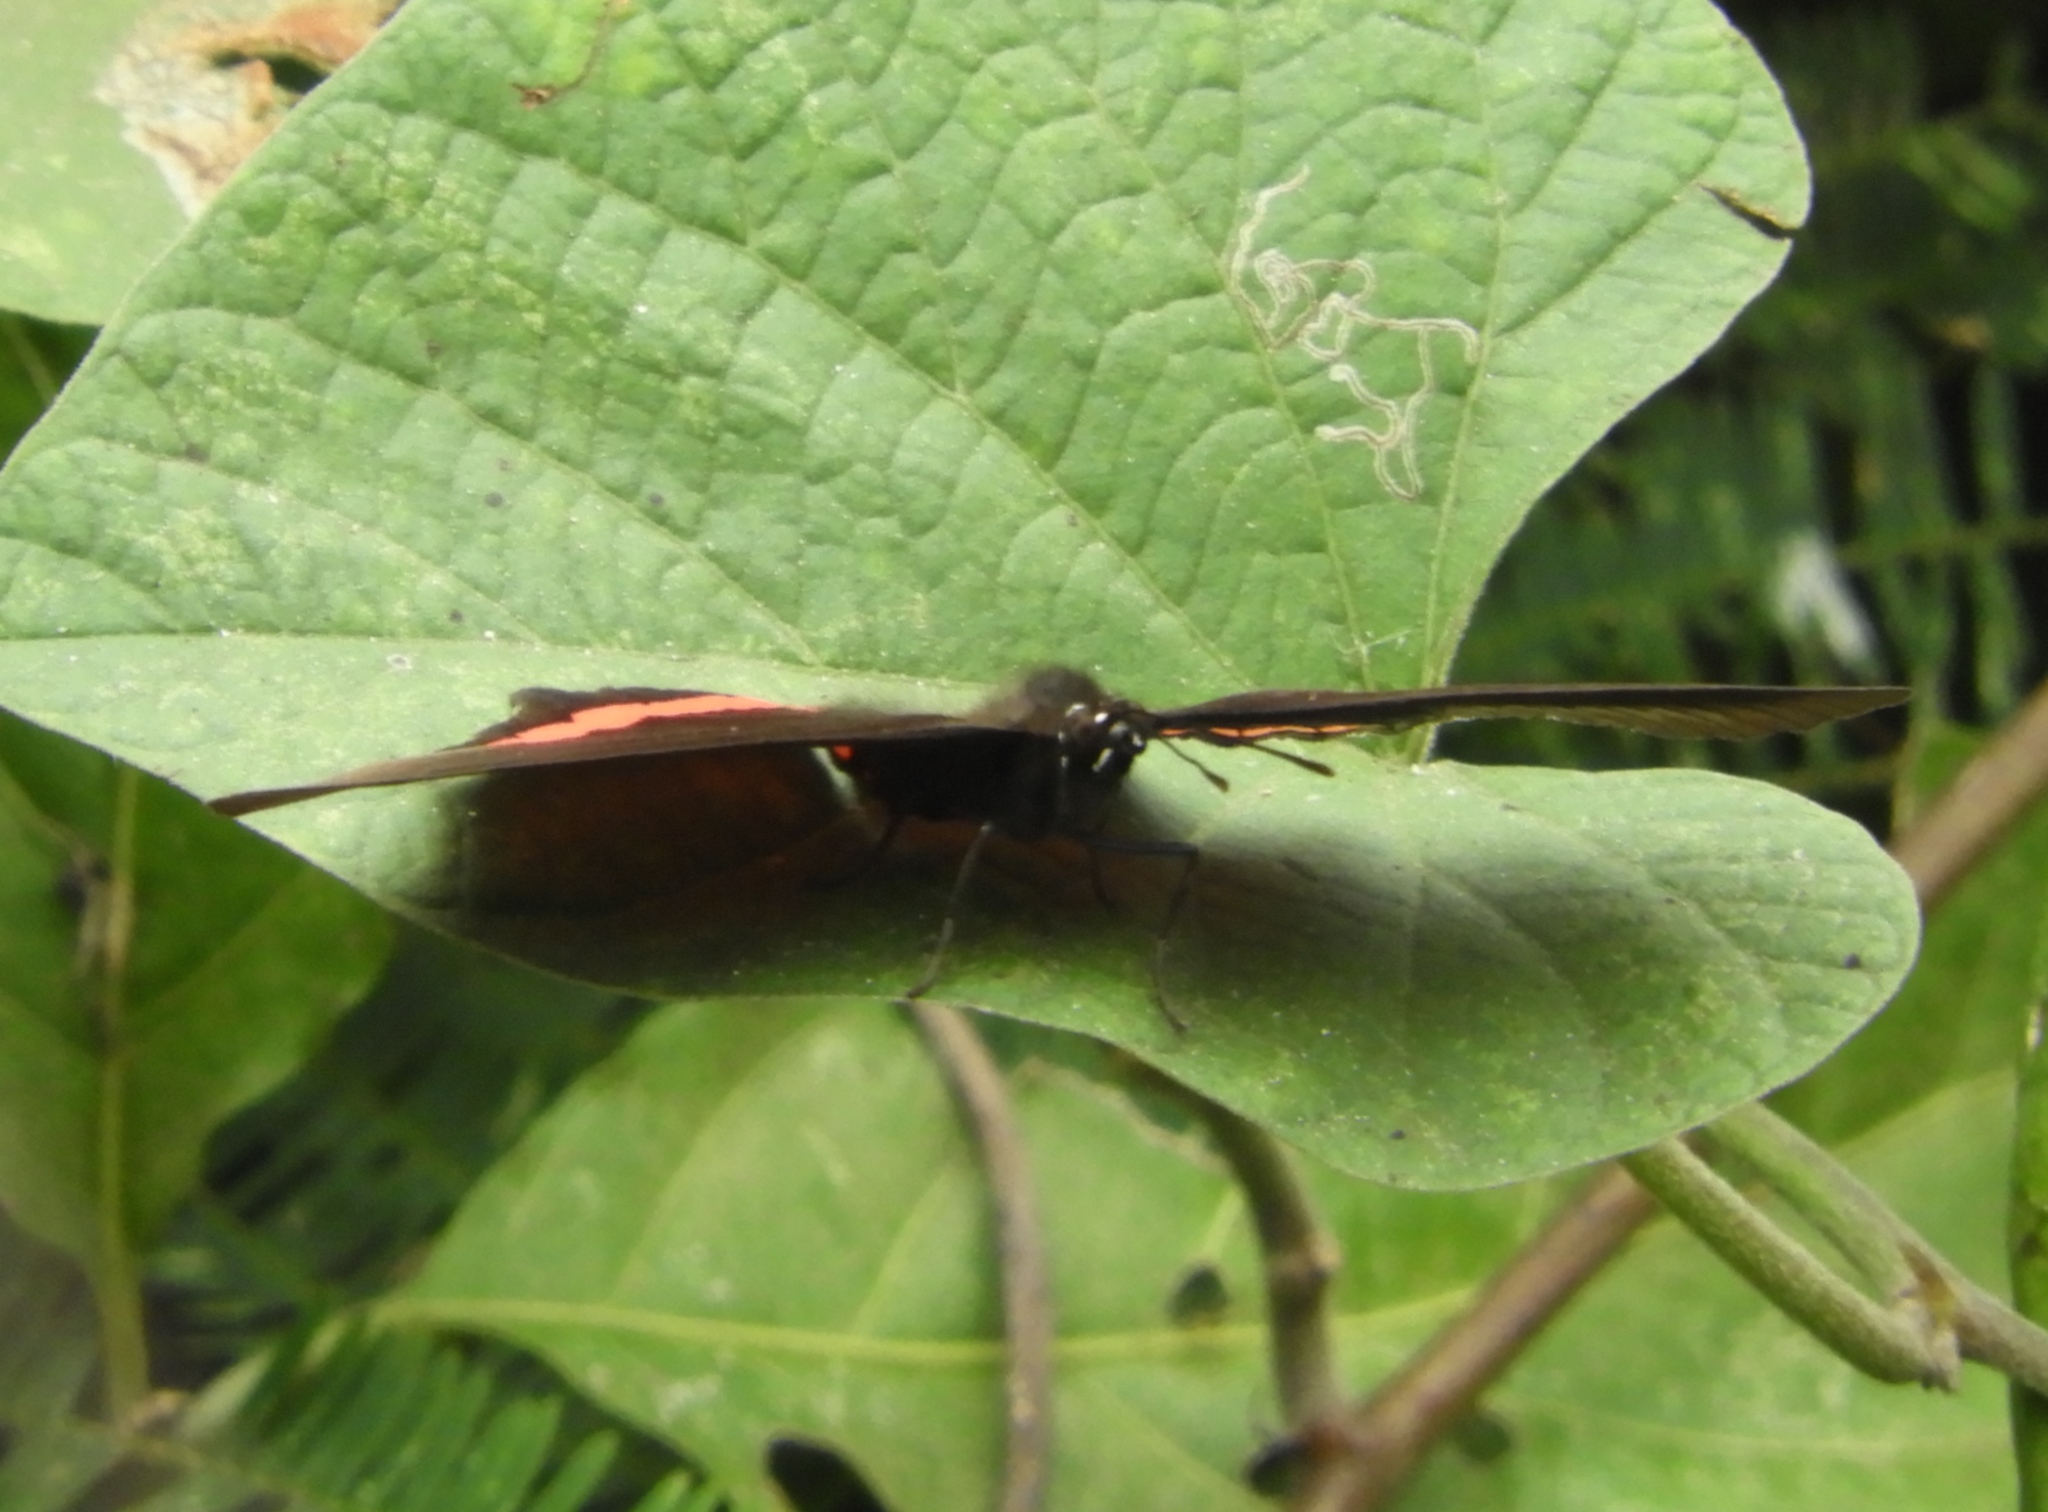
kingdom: Animalia
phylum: Arthropoda
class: Insecta
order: Lepidoptera
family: Nymphalidae
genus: Biblis
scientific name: Biblis aganisa
